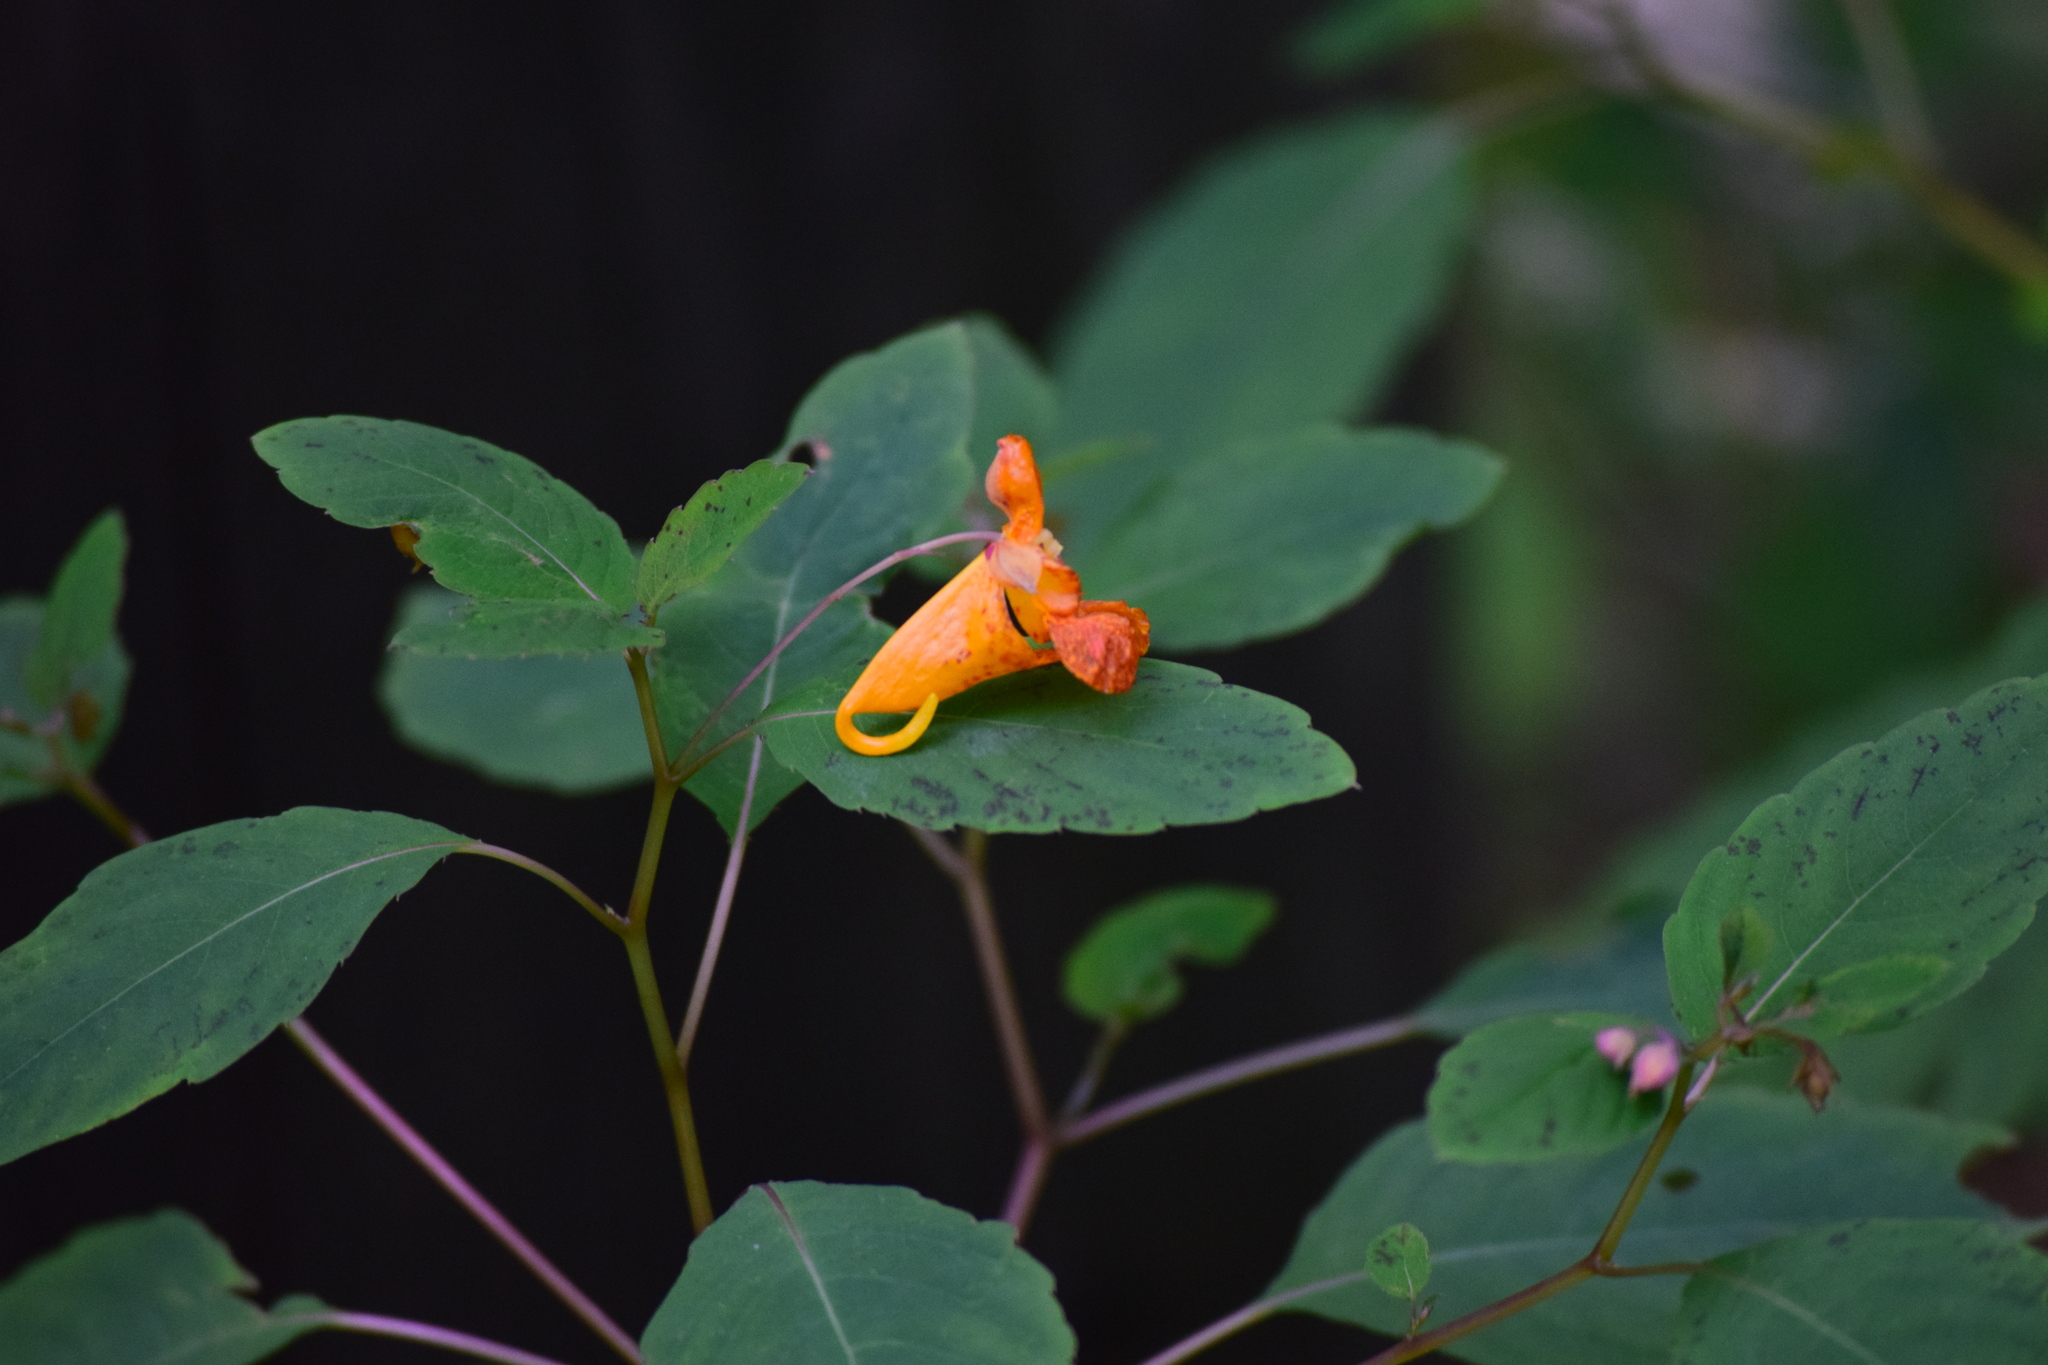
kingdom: Plantae
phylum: Tracheophyta
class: Magnoliopsida
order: Ericales
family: Balsaminaceae
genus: Impatiens
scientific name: Impatiens capensis
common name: Orange balsam
